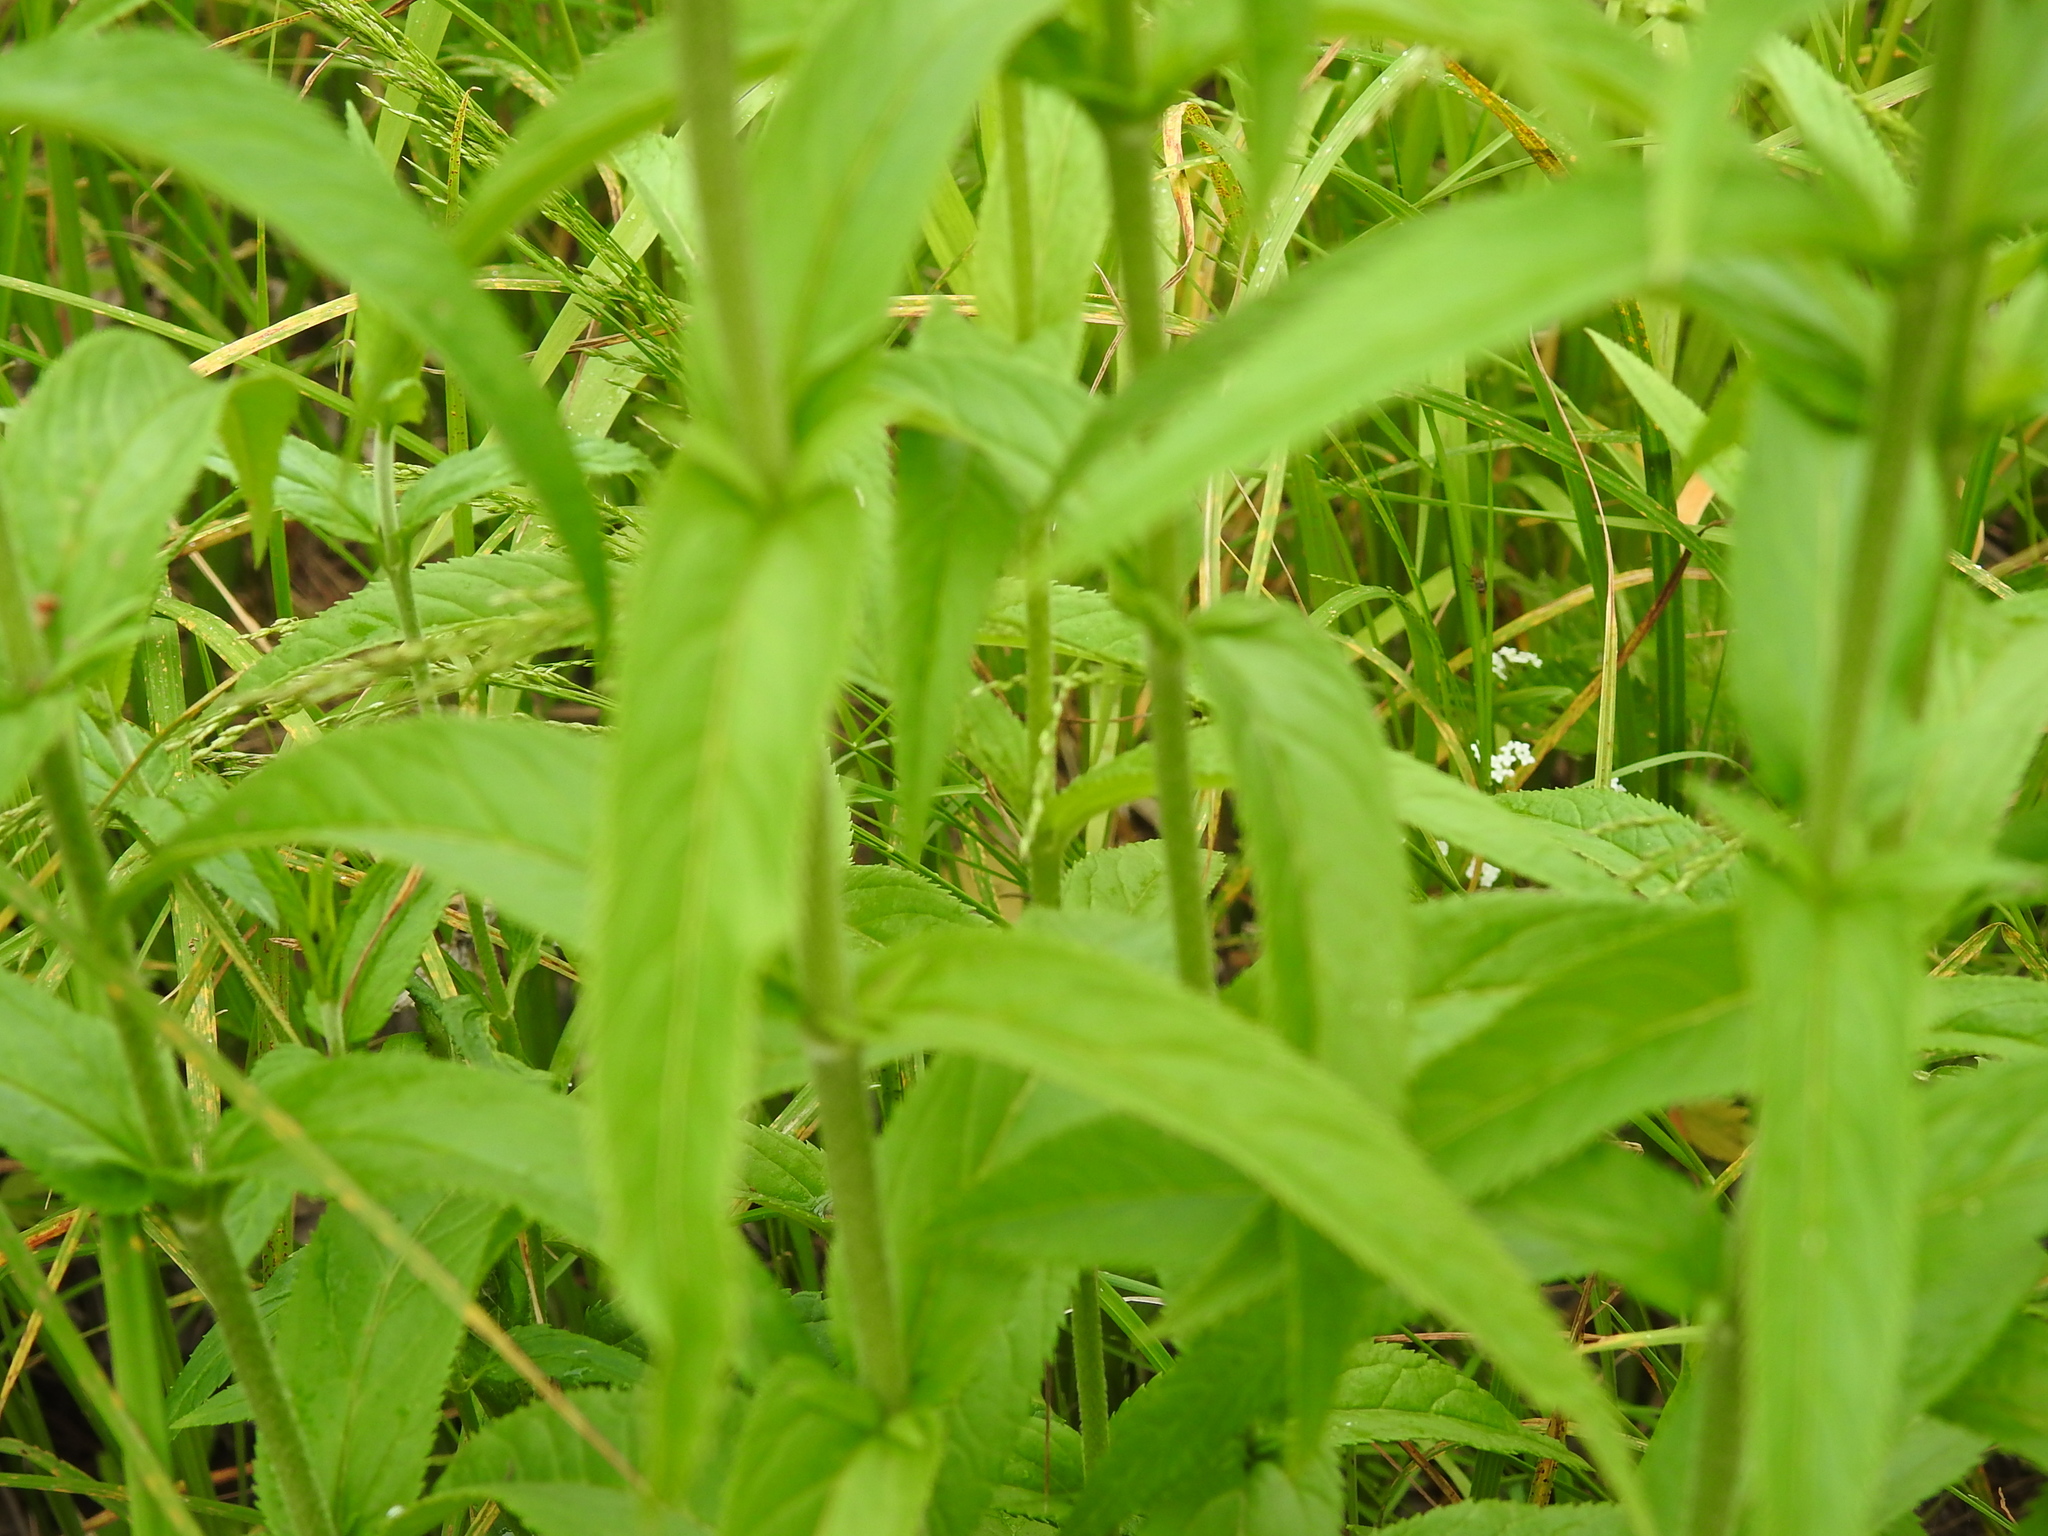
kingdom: Plantae
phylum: Tracheophyta
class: Magnoliopsida
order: Lamiales
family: Plantaginaceae
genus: Veronica
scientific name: Veronica longifolia
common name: Garden speedwell
